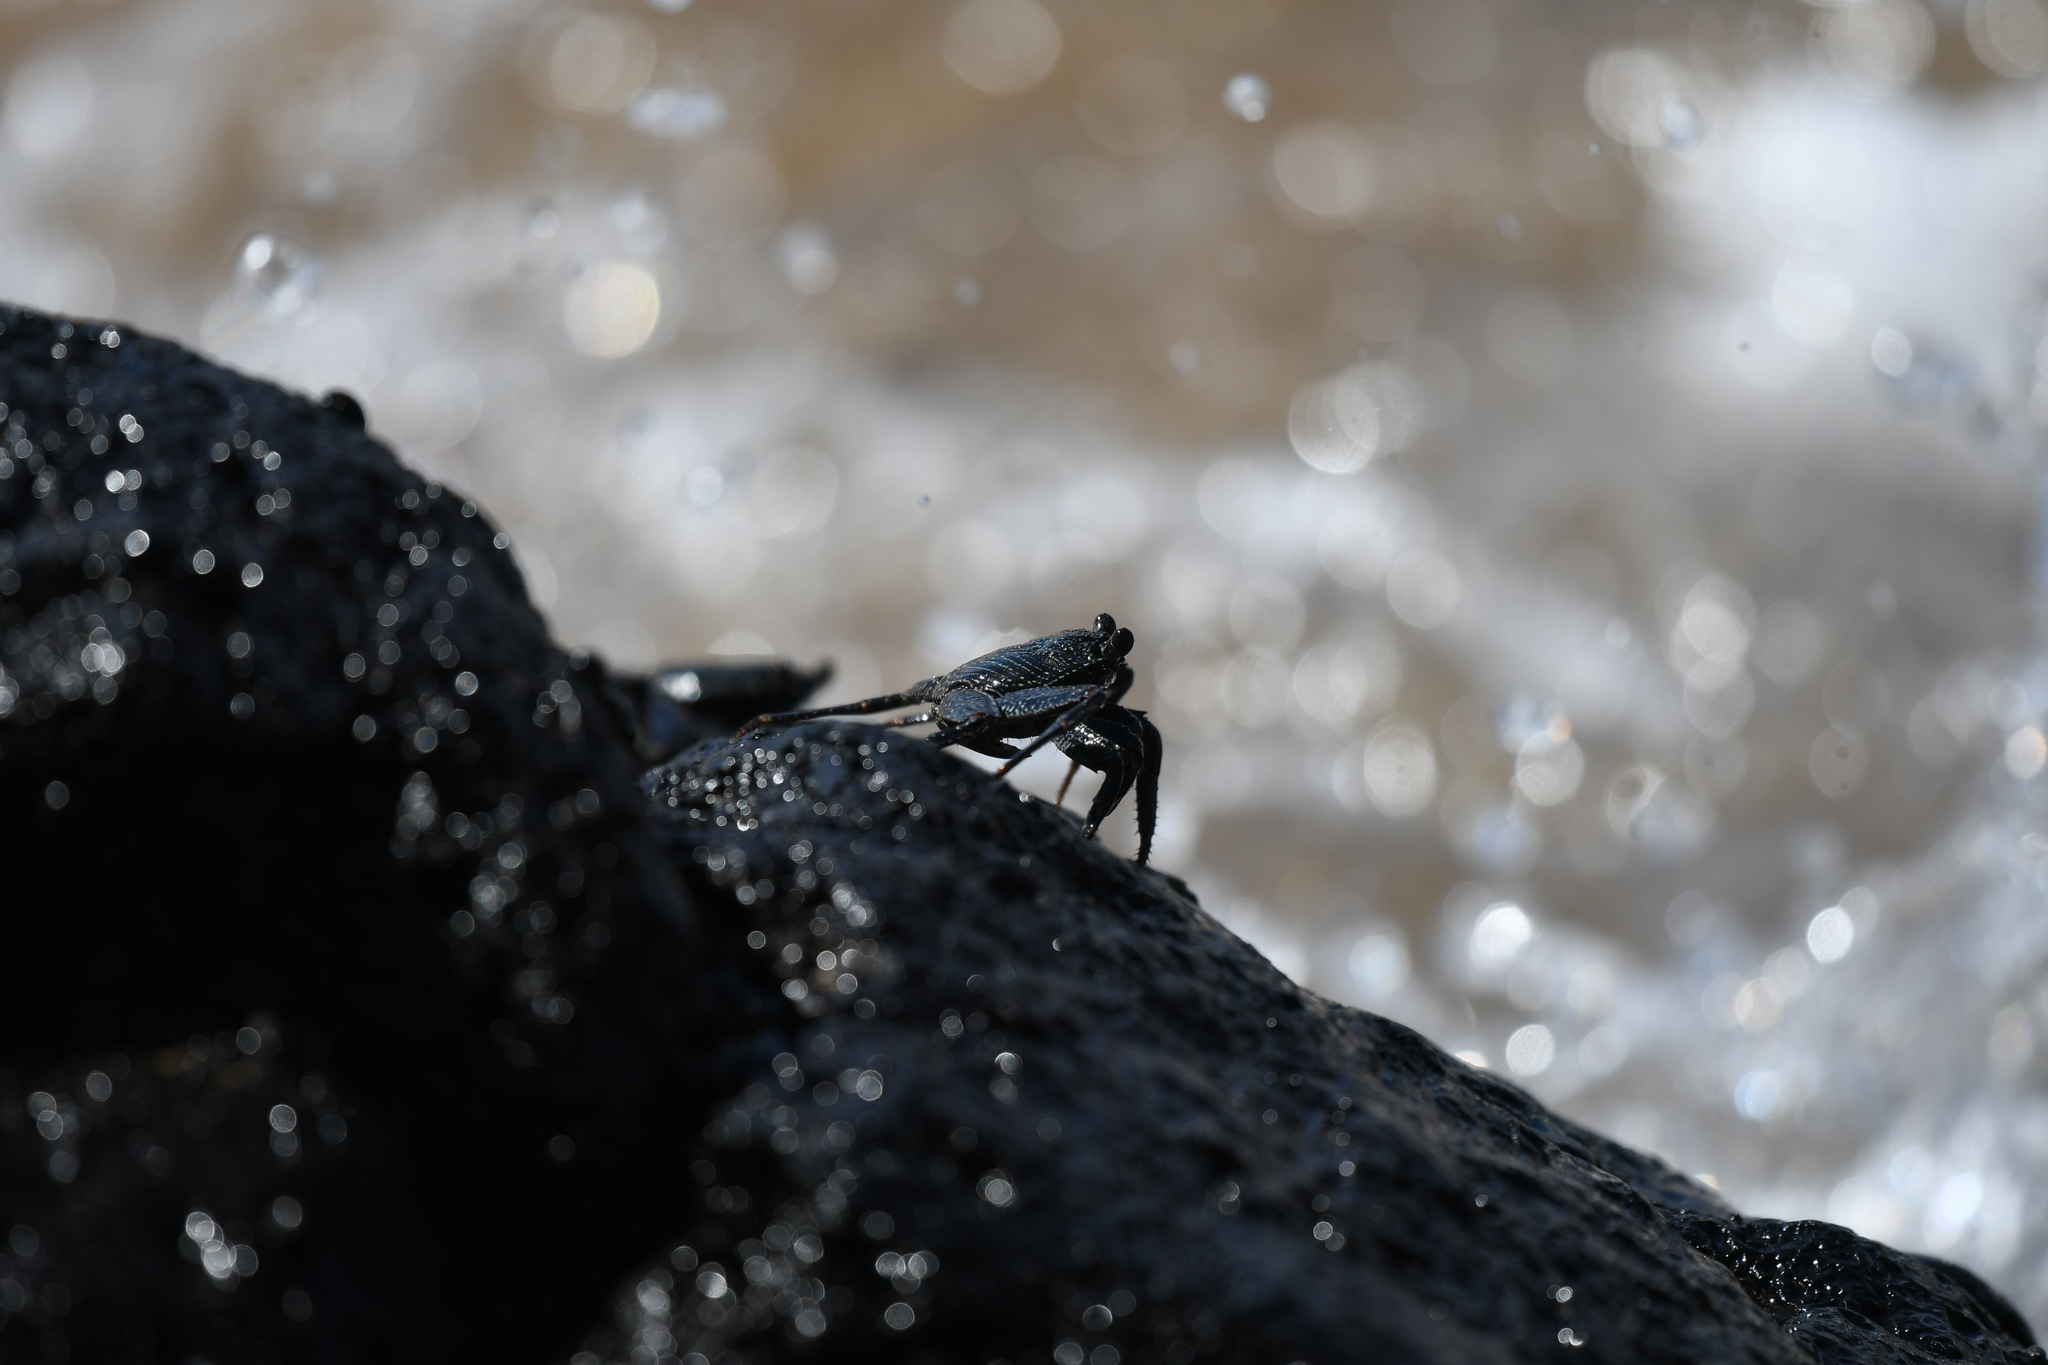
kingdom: Animalia
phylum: Arthropoda
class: Malacostraca
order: Decapoda
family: Grapsidae
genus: Grapsus
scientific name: Grapsus tenuicrustatus
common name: Natal lightfoot crab
